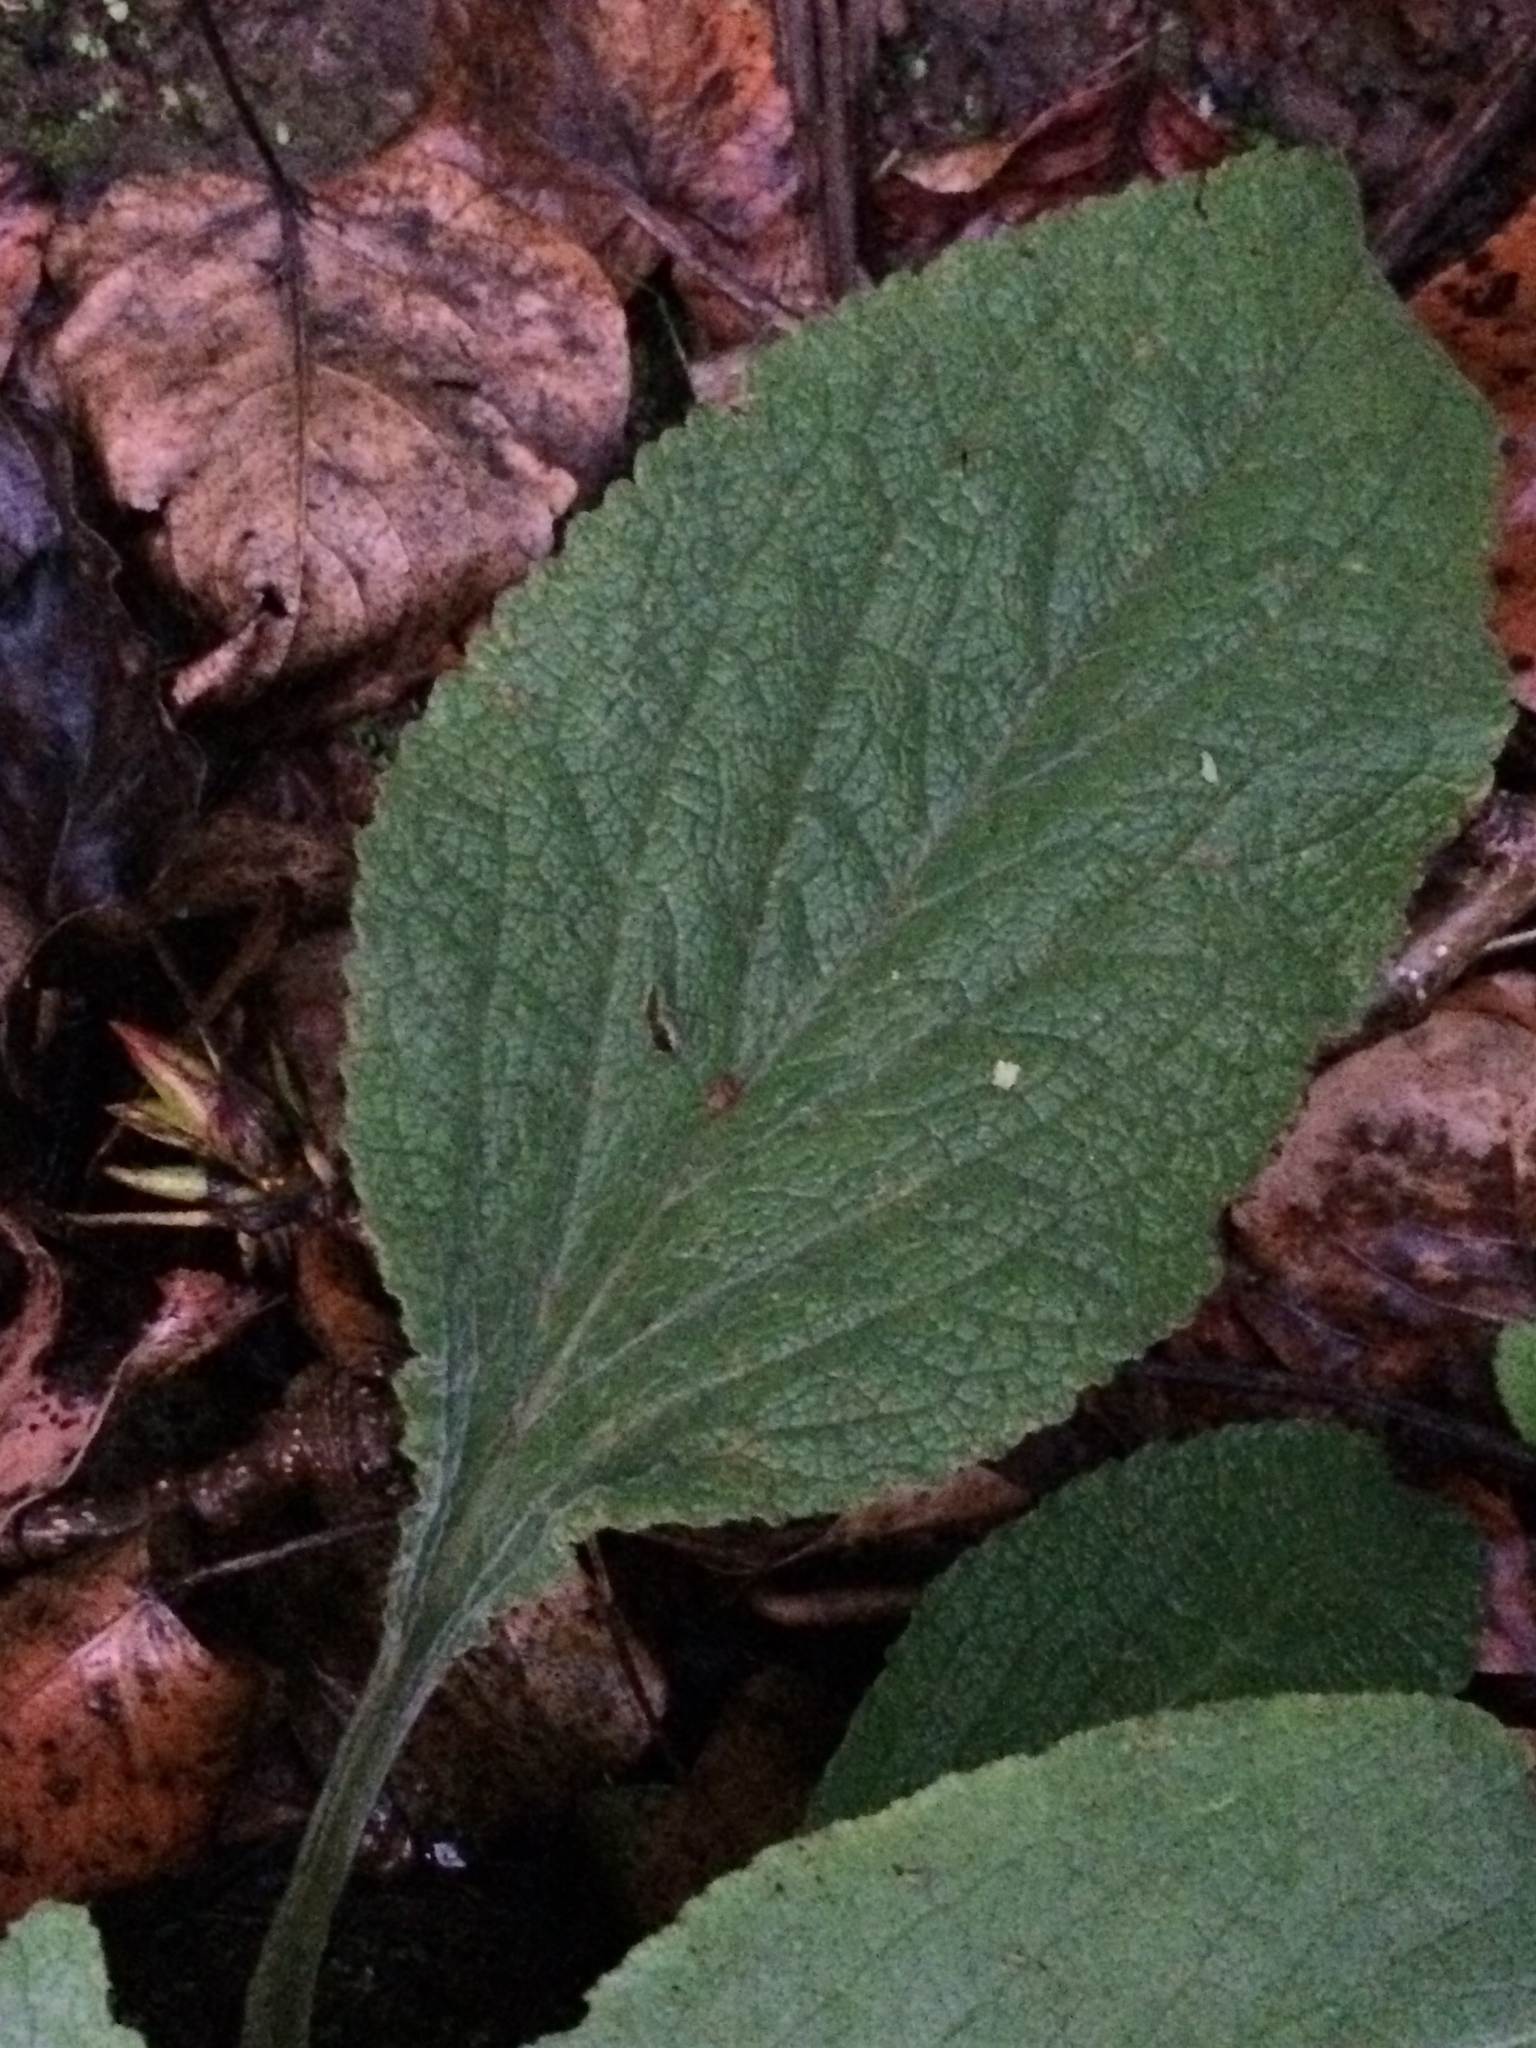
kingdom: Plantae
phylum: Tracheophyta
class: Magnoliopsida
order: Lamiales
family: Plantaginaceae
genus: Digitalis
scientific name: Digitalis purpurea
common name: Foxglove
